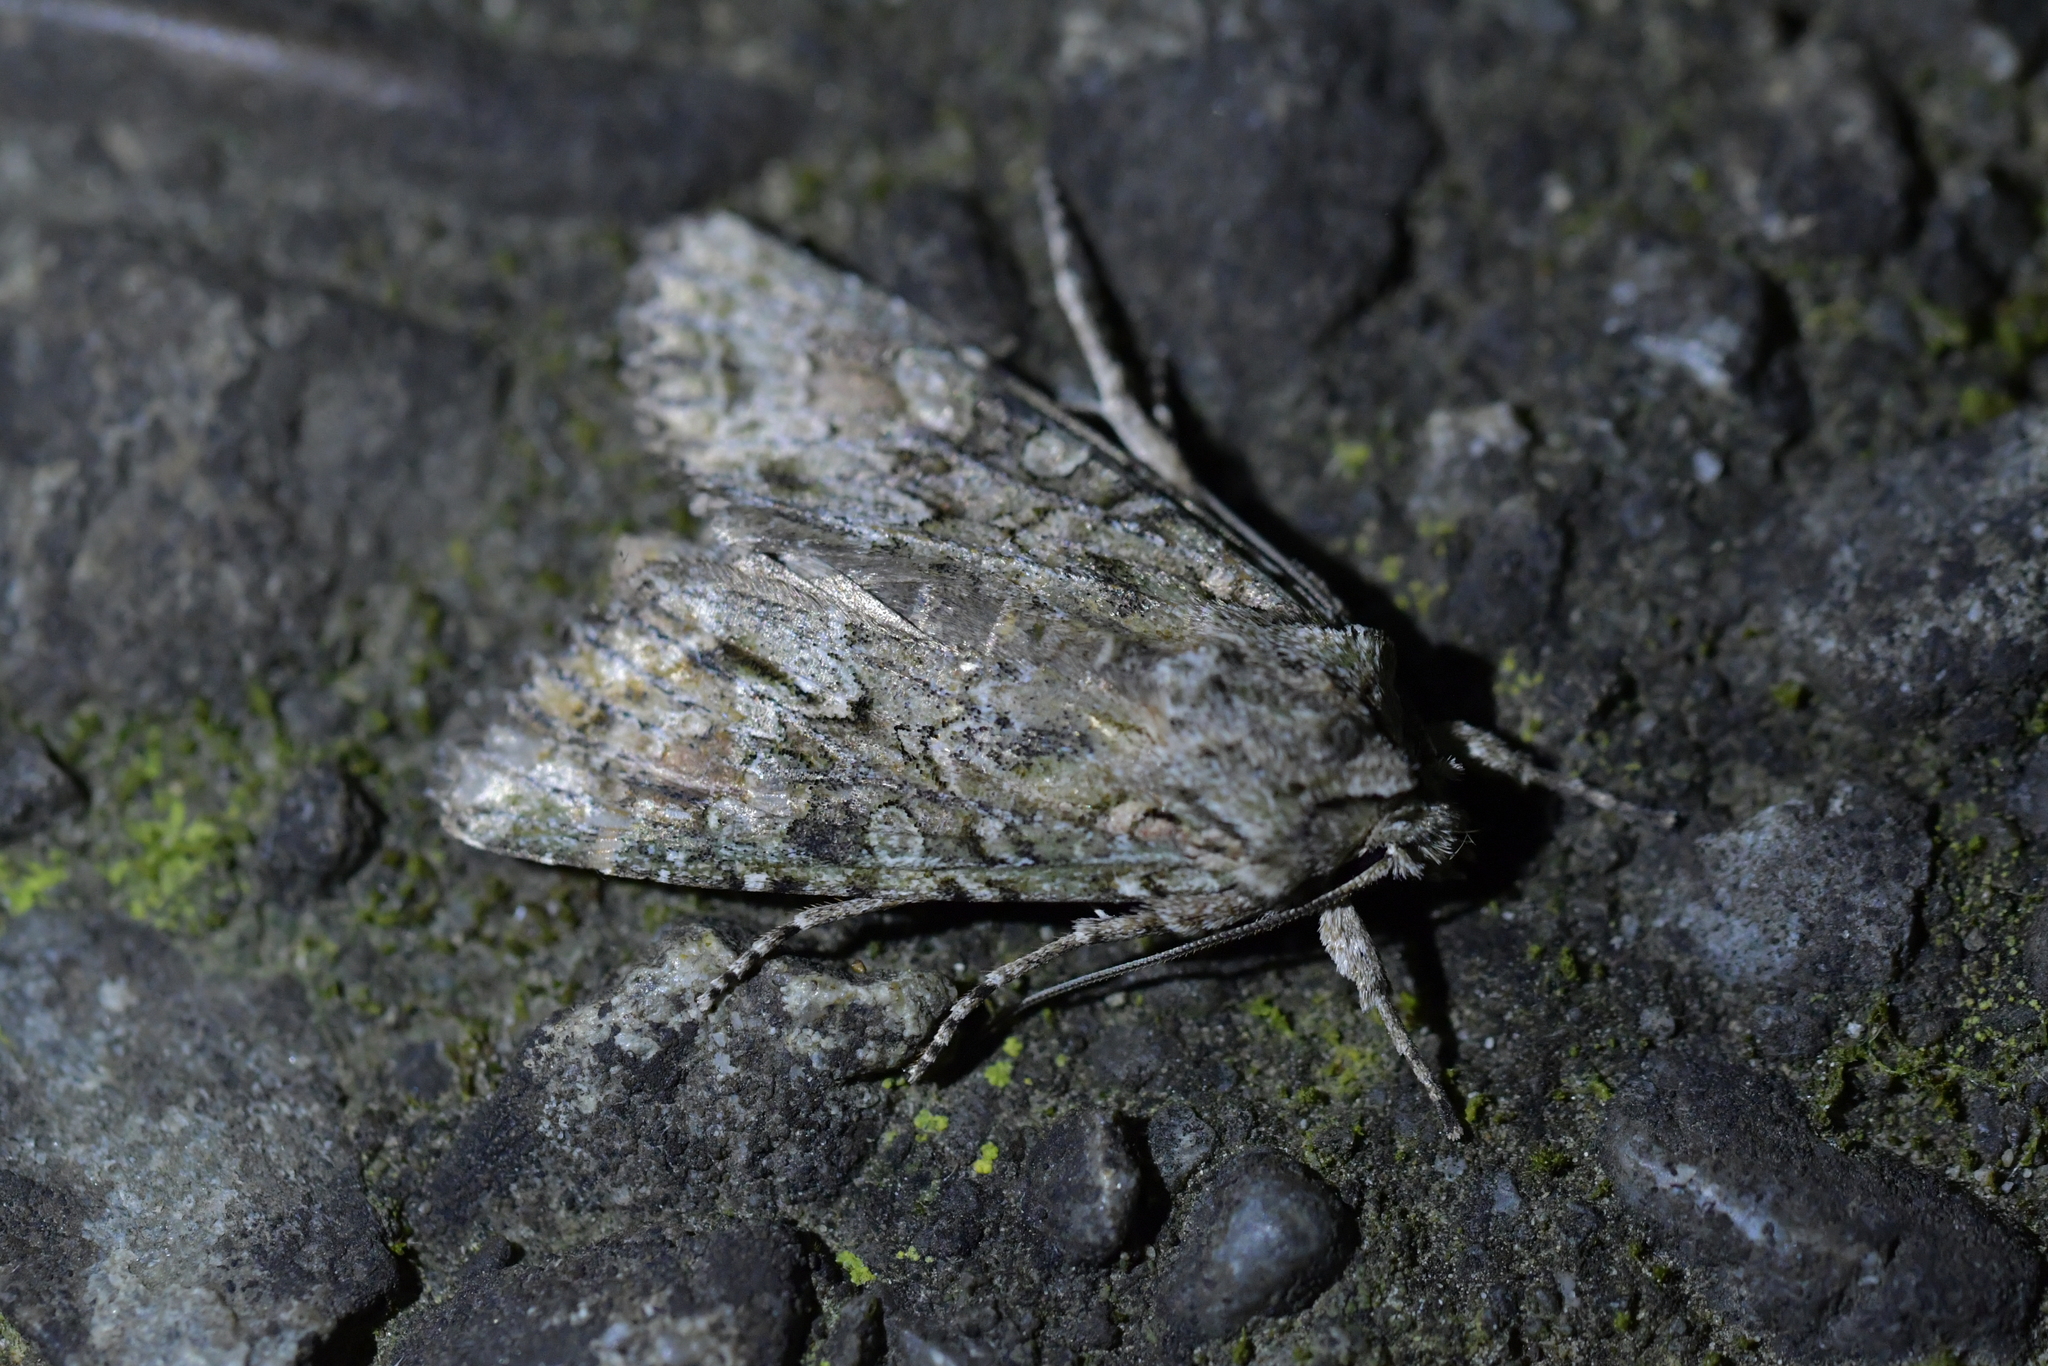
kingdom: Animalia
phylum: Arthropoda
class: Insecta
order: Lepidoptera
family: Noctuidae
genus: Ichneutica
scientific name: Ichneutica mutans
